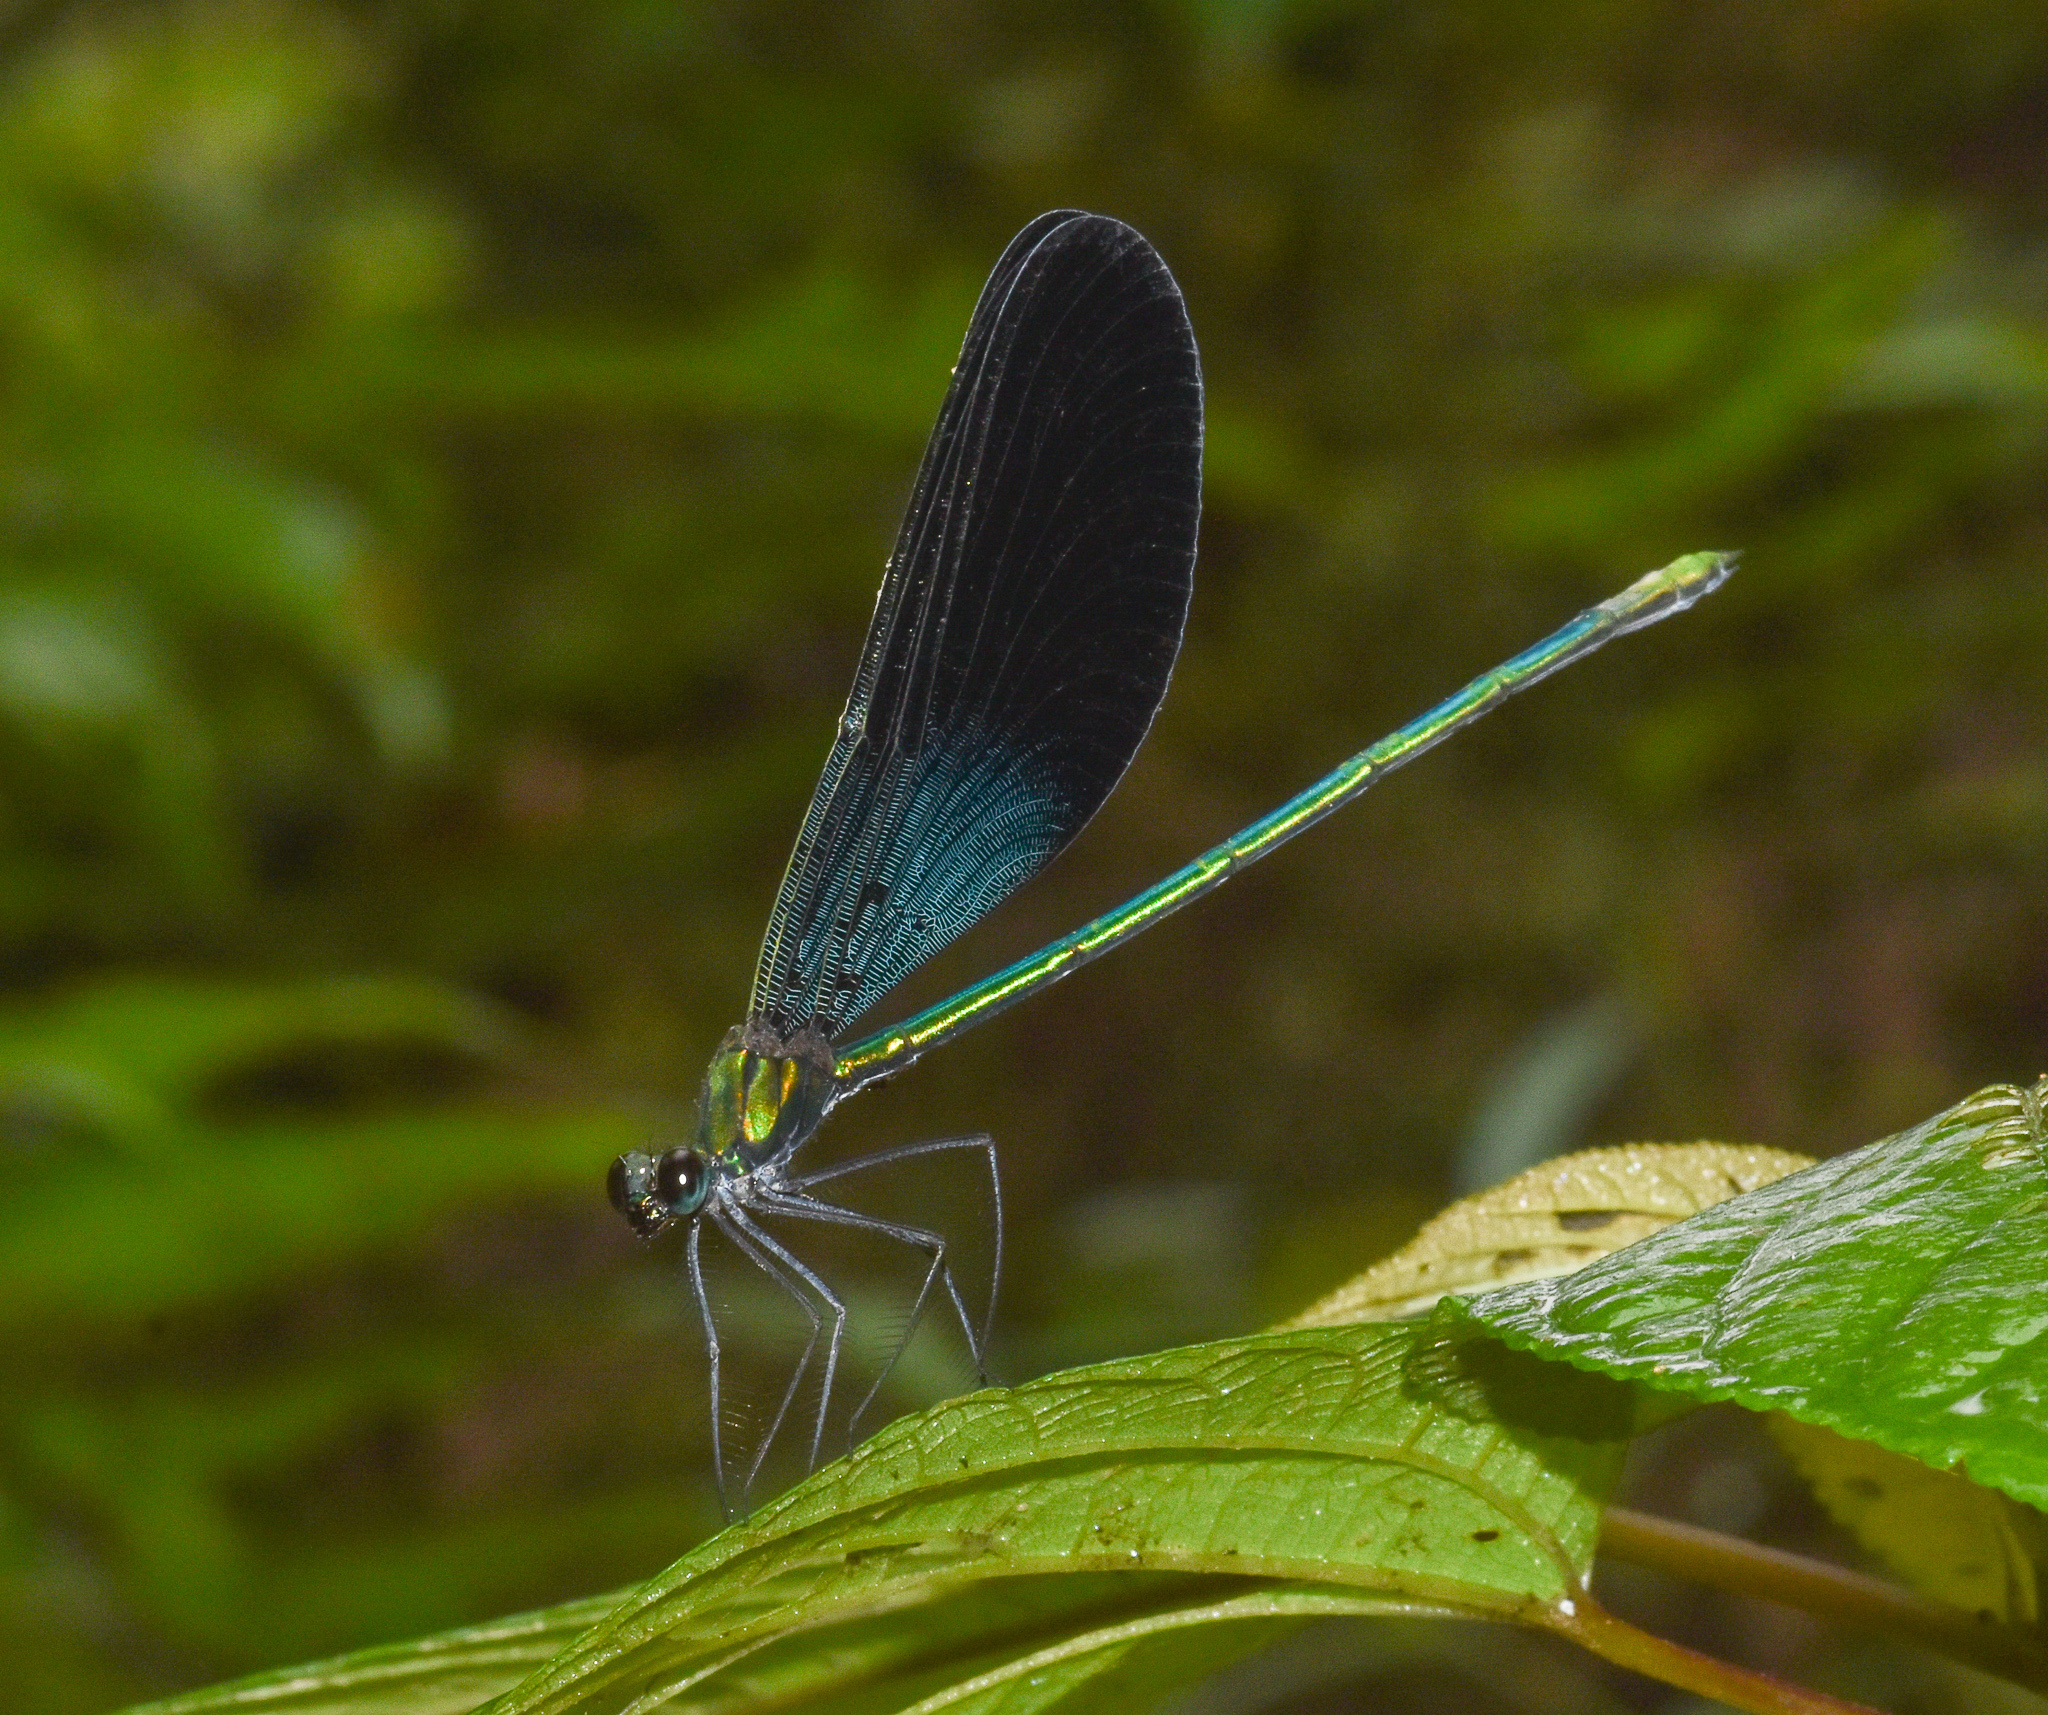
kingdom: Animalia
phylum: Arthropoda
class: Insecta
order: Odonata
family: Calopterygidae
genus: Neurobasis
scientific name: Neurobasis chinensis
